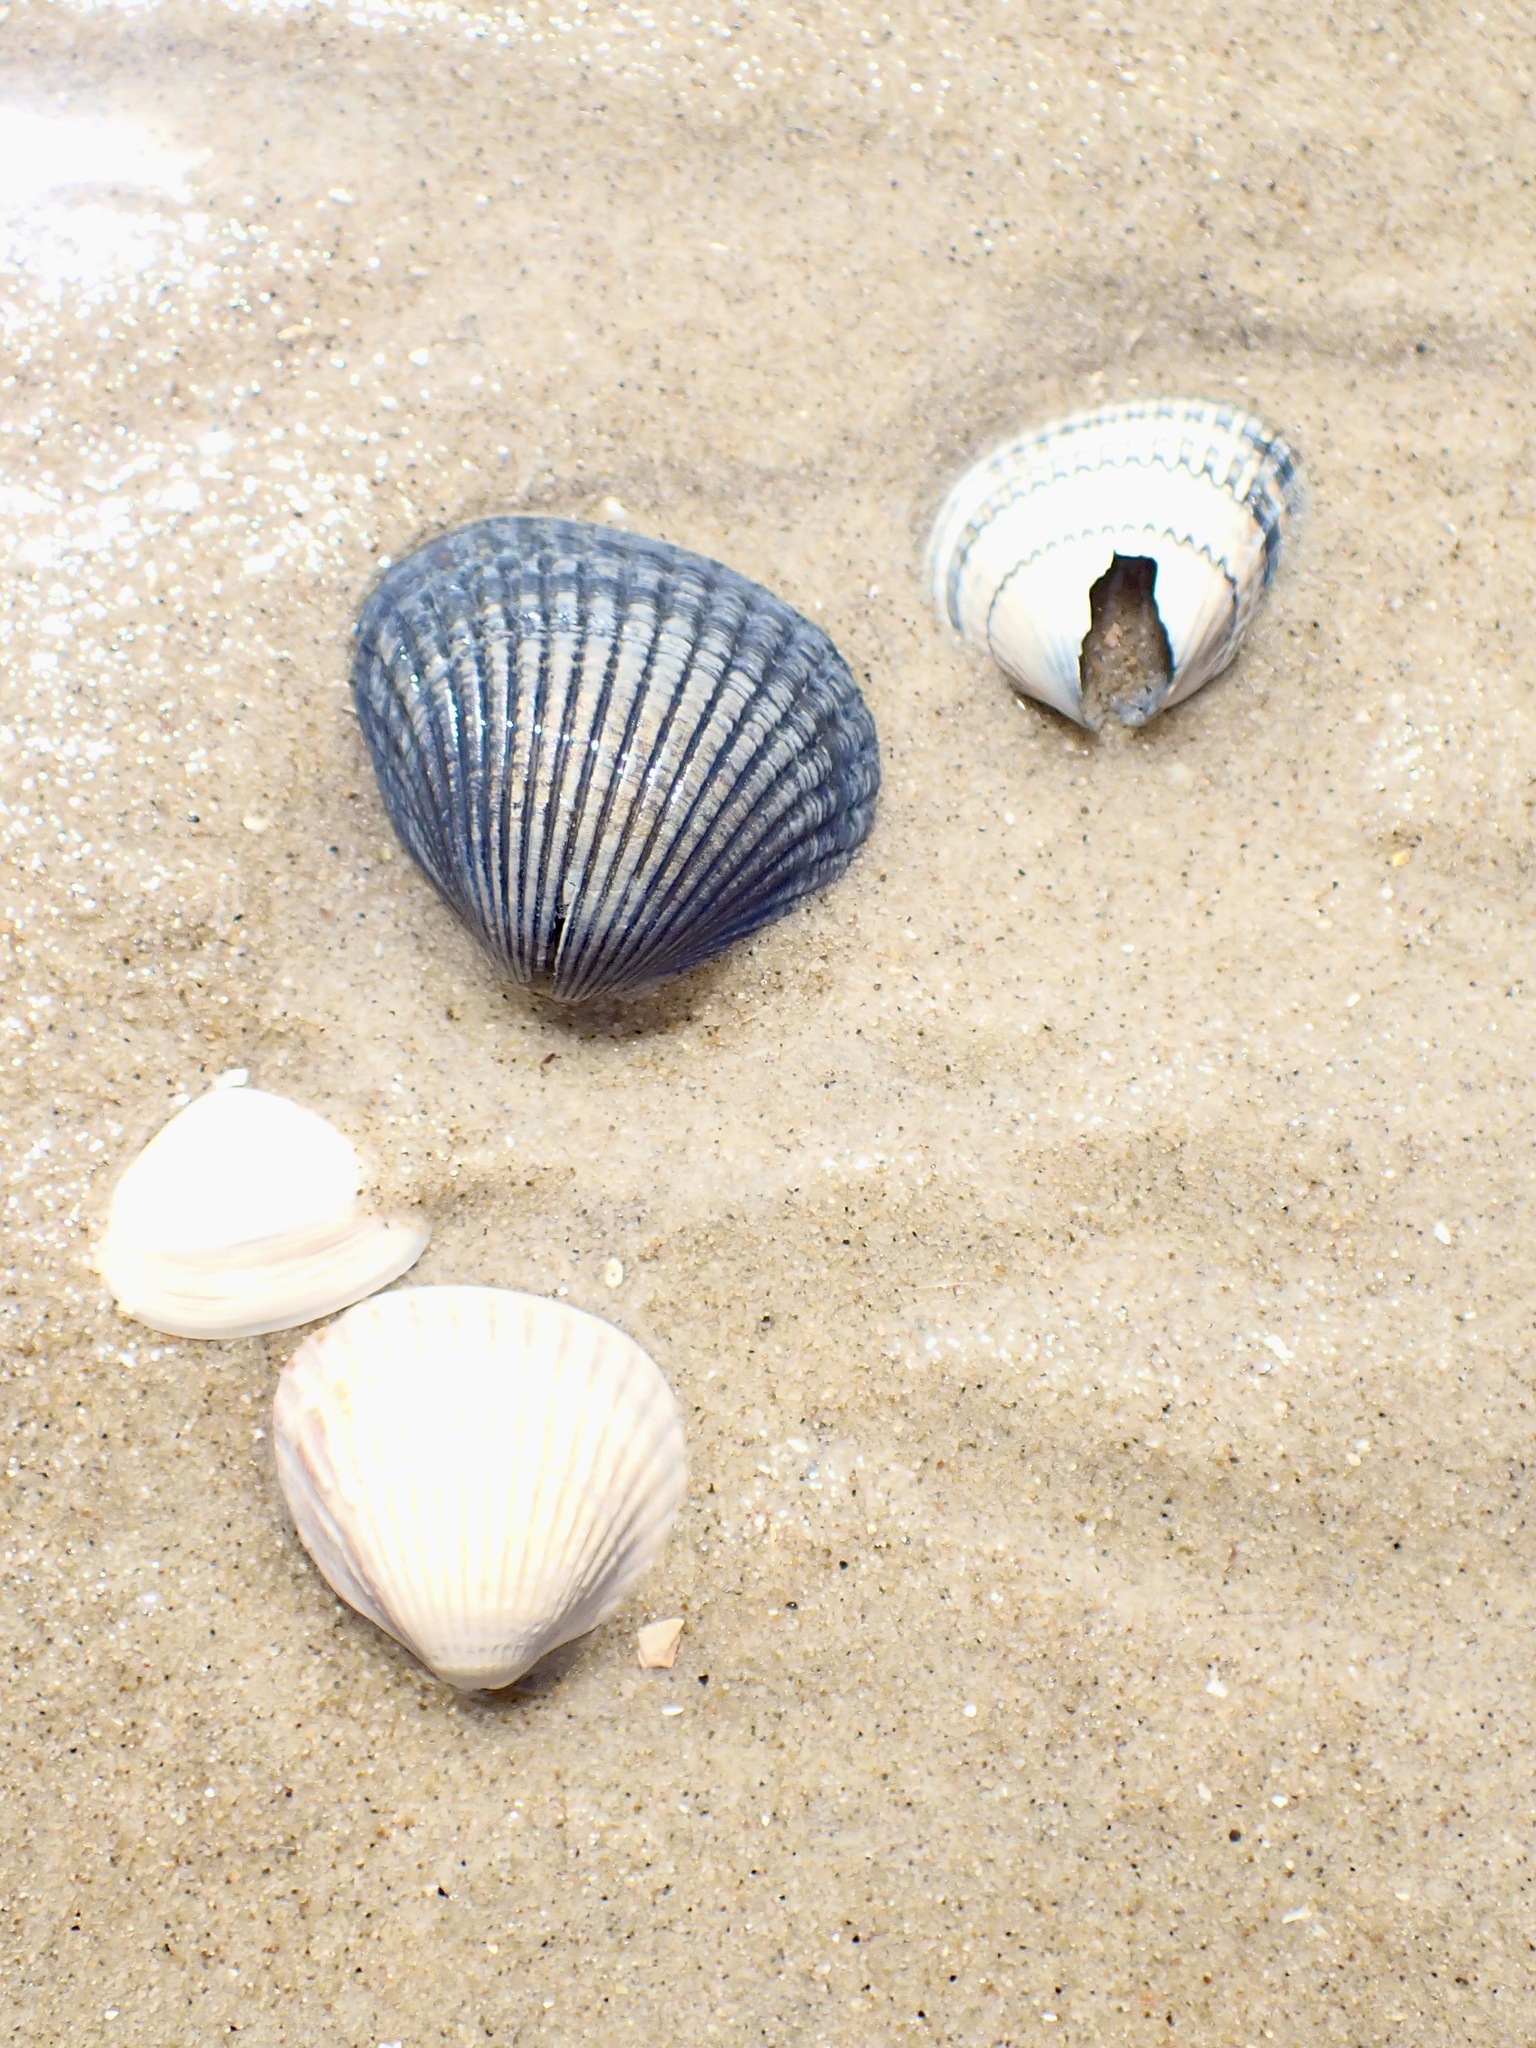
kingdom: Animalia
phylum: Mollusca
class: Bivalvia
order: Cardiida
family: Cardiidae
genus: Cerastoderma
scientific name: Cerastoderma edule
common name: Common cockle
